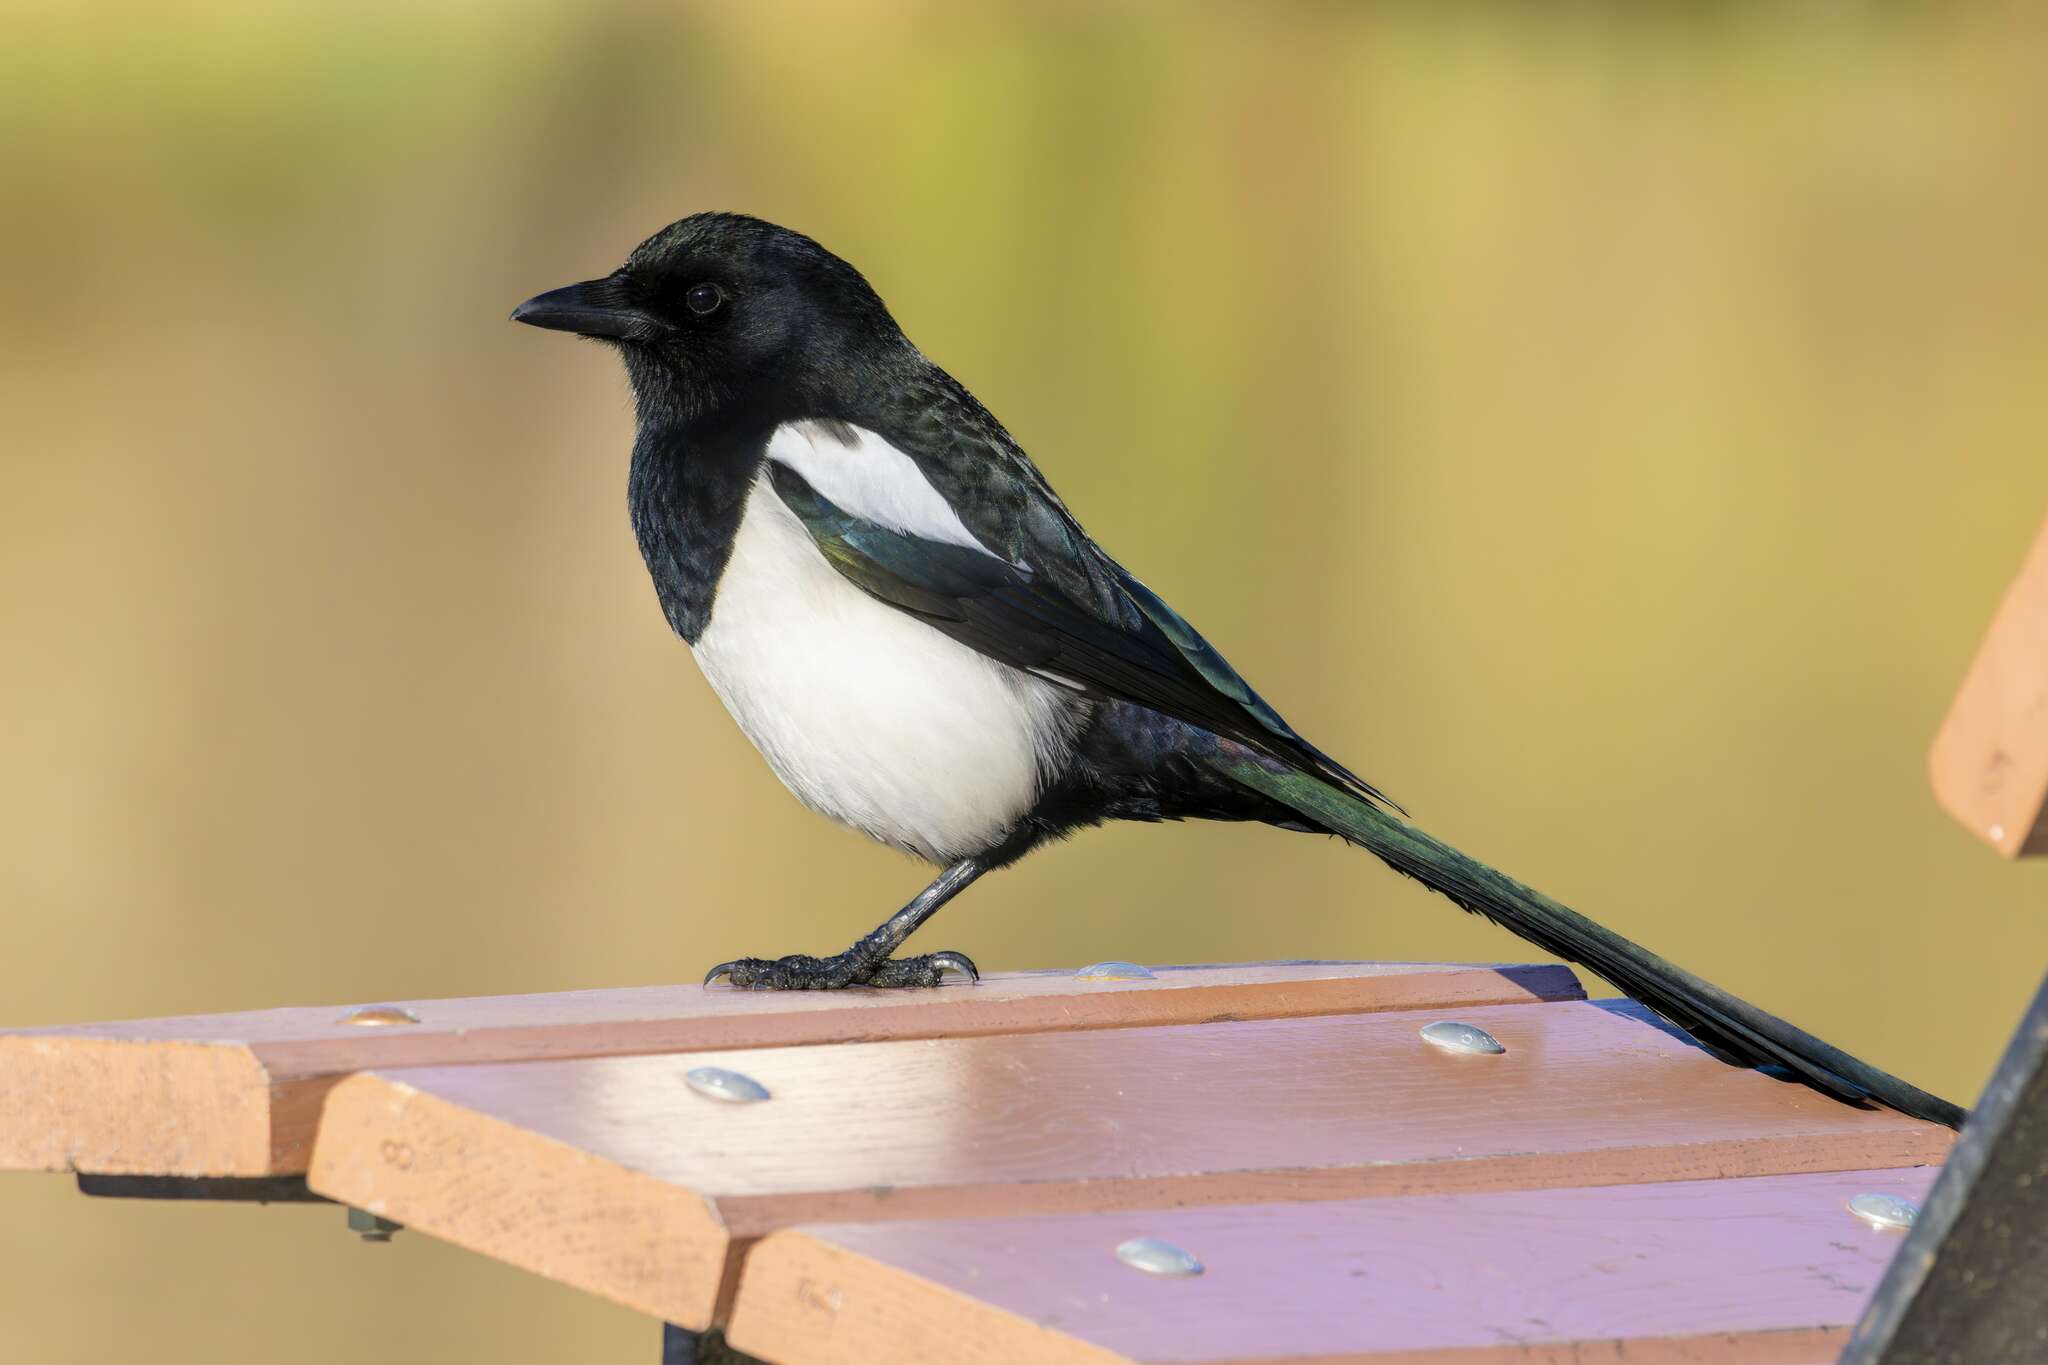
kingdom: Animalia
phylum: Chordata
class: Aves
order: Passeriformes
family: Corvidae
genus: Pica
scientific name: Pica pica
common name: Eurasian magpie
